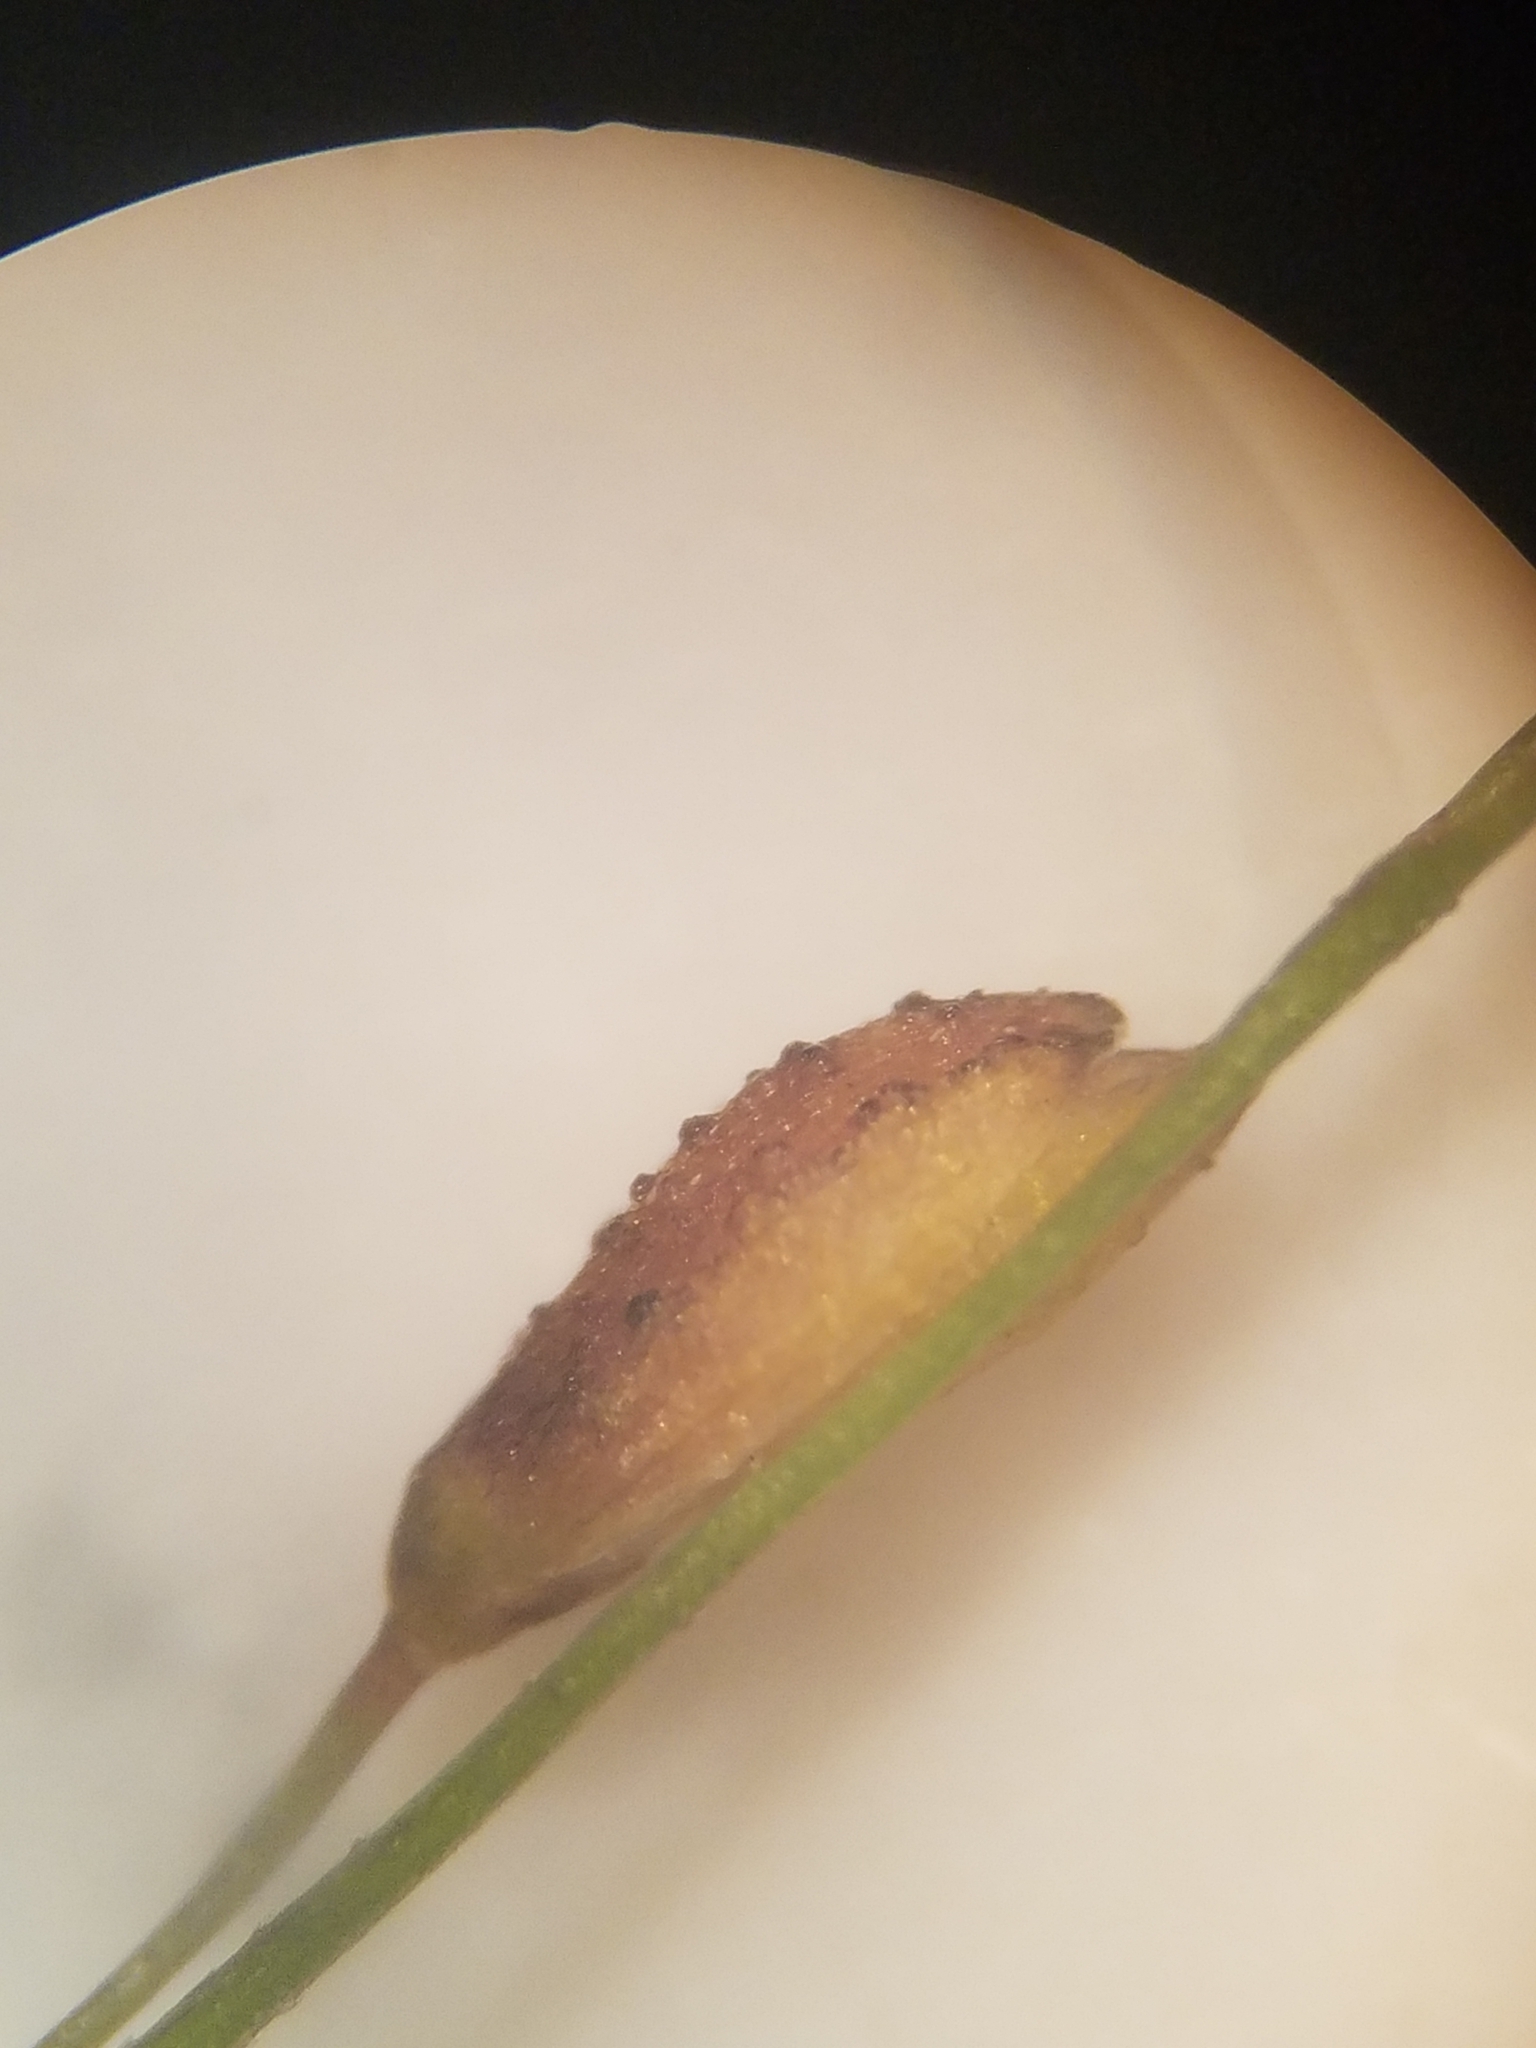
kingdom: Plantae
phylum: Tracheophyta
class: Liliopsida
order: Poales
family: Poaceae
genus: Kellochloa
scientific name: Kellochloa verrucosa
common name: Warty panic grass
